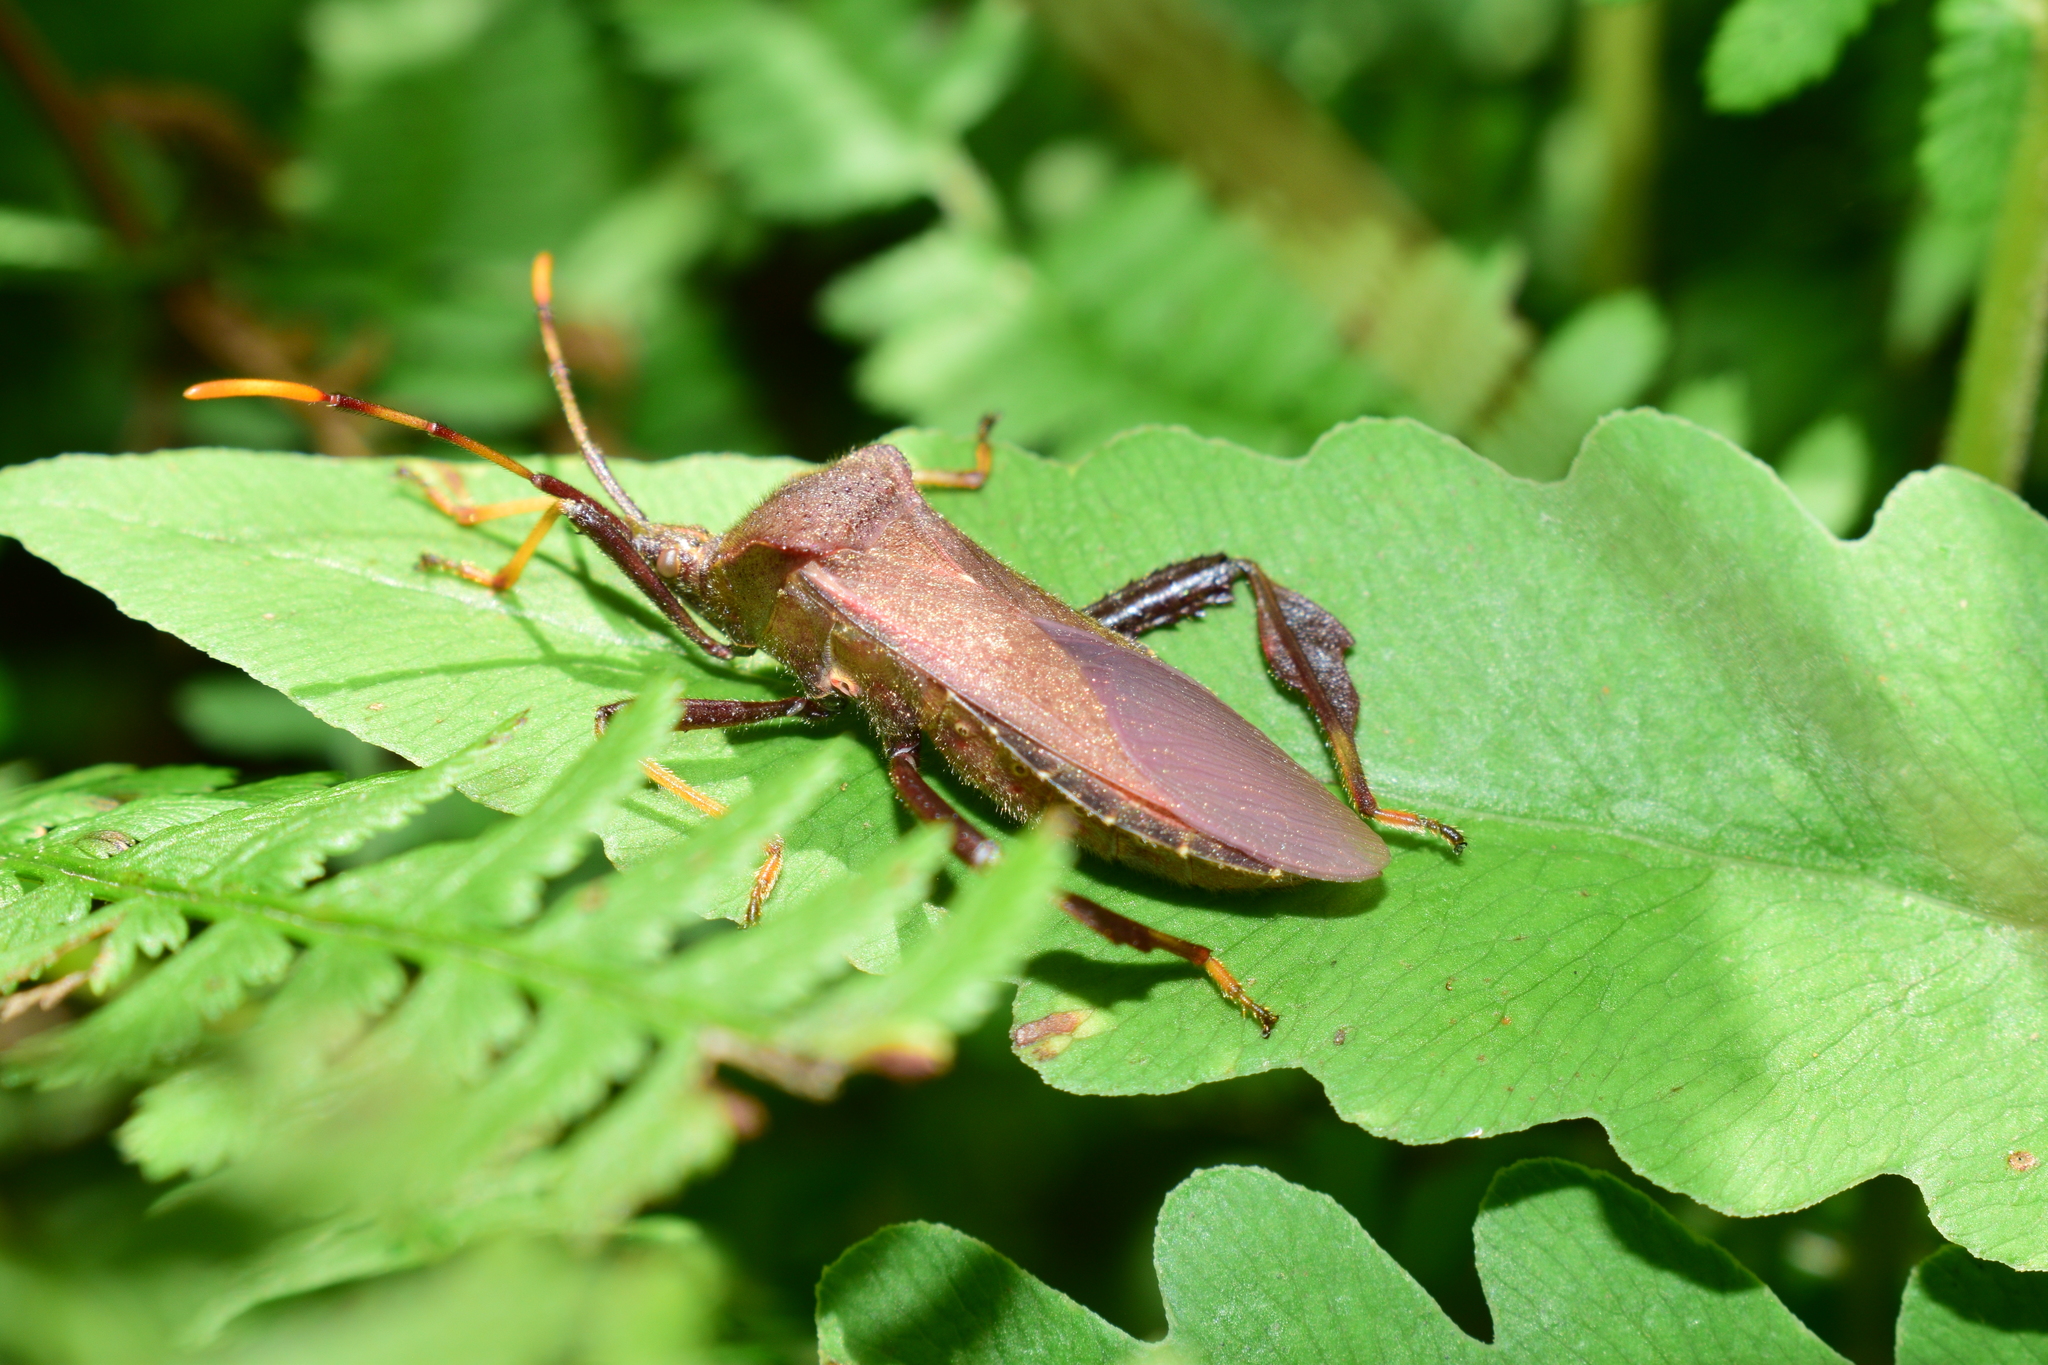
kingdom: Animalia
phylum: Arthropoda
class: Insecta
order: Hemiptera
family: Coreidae
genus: Acanthocephala
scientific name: Acanthocephala terminalis
